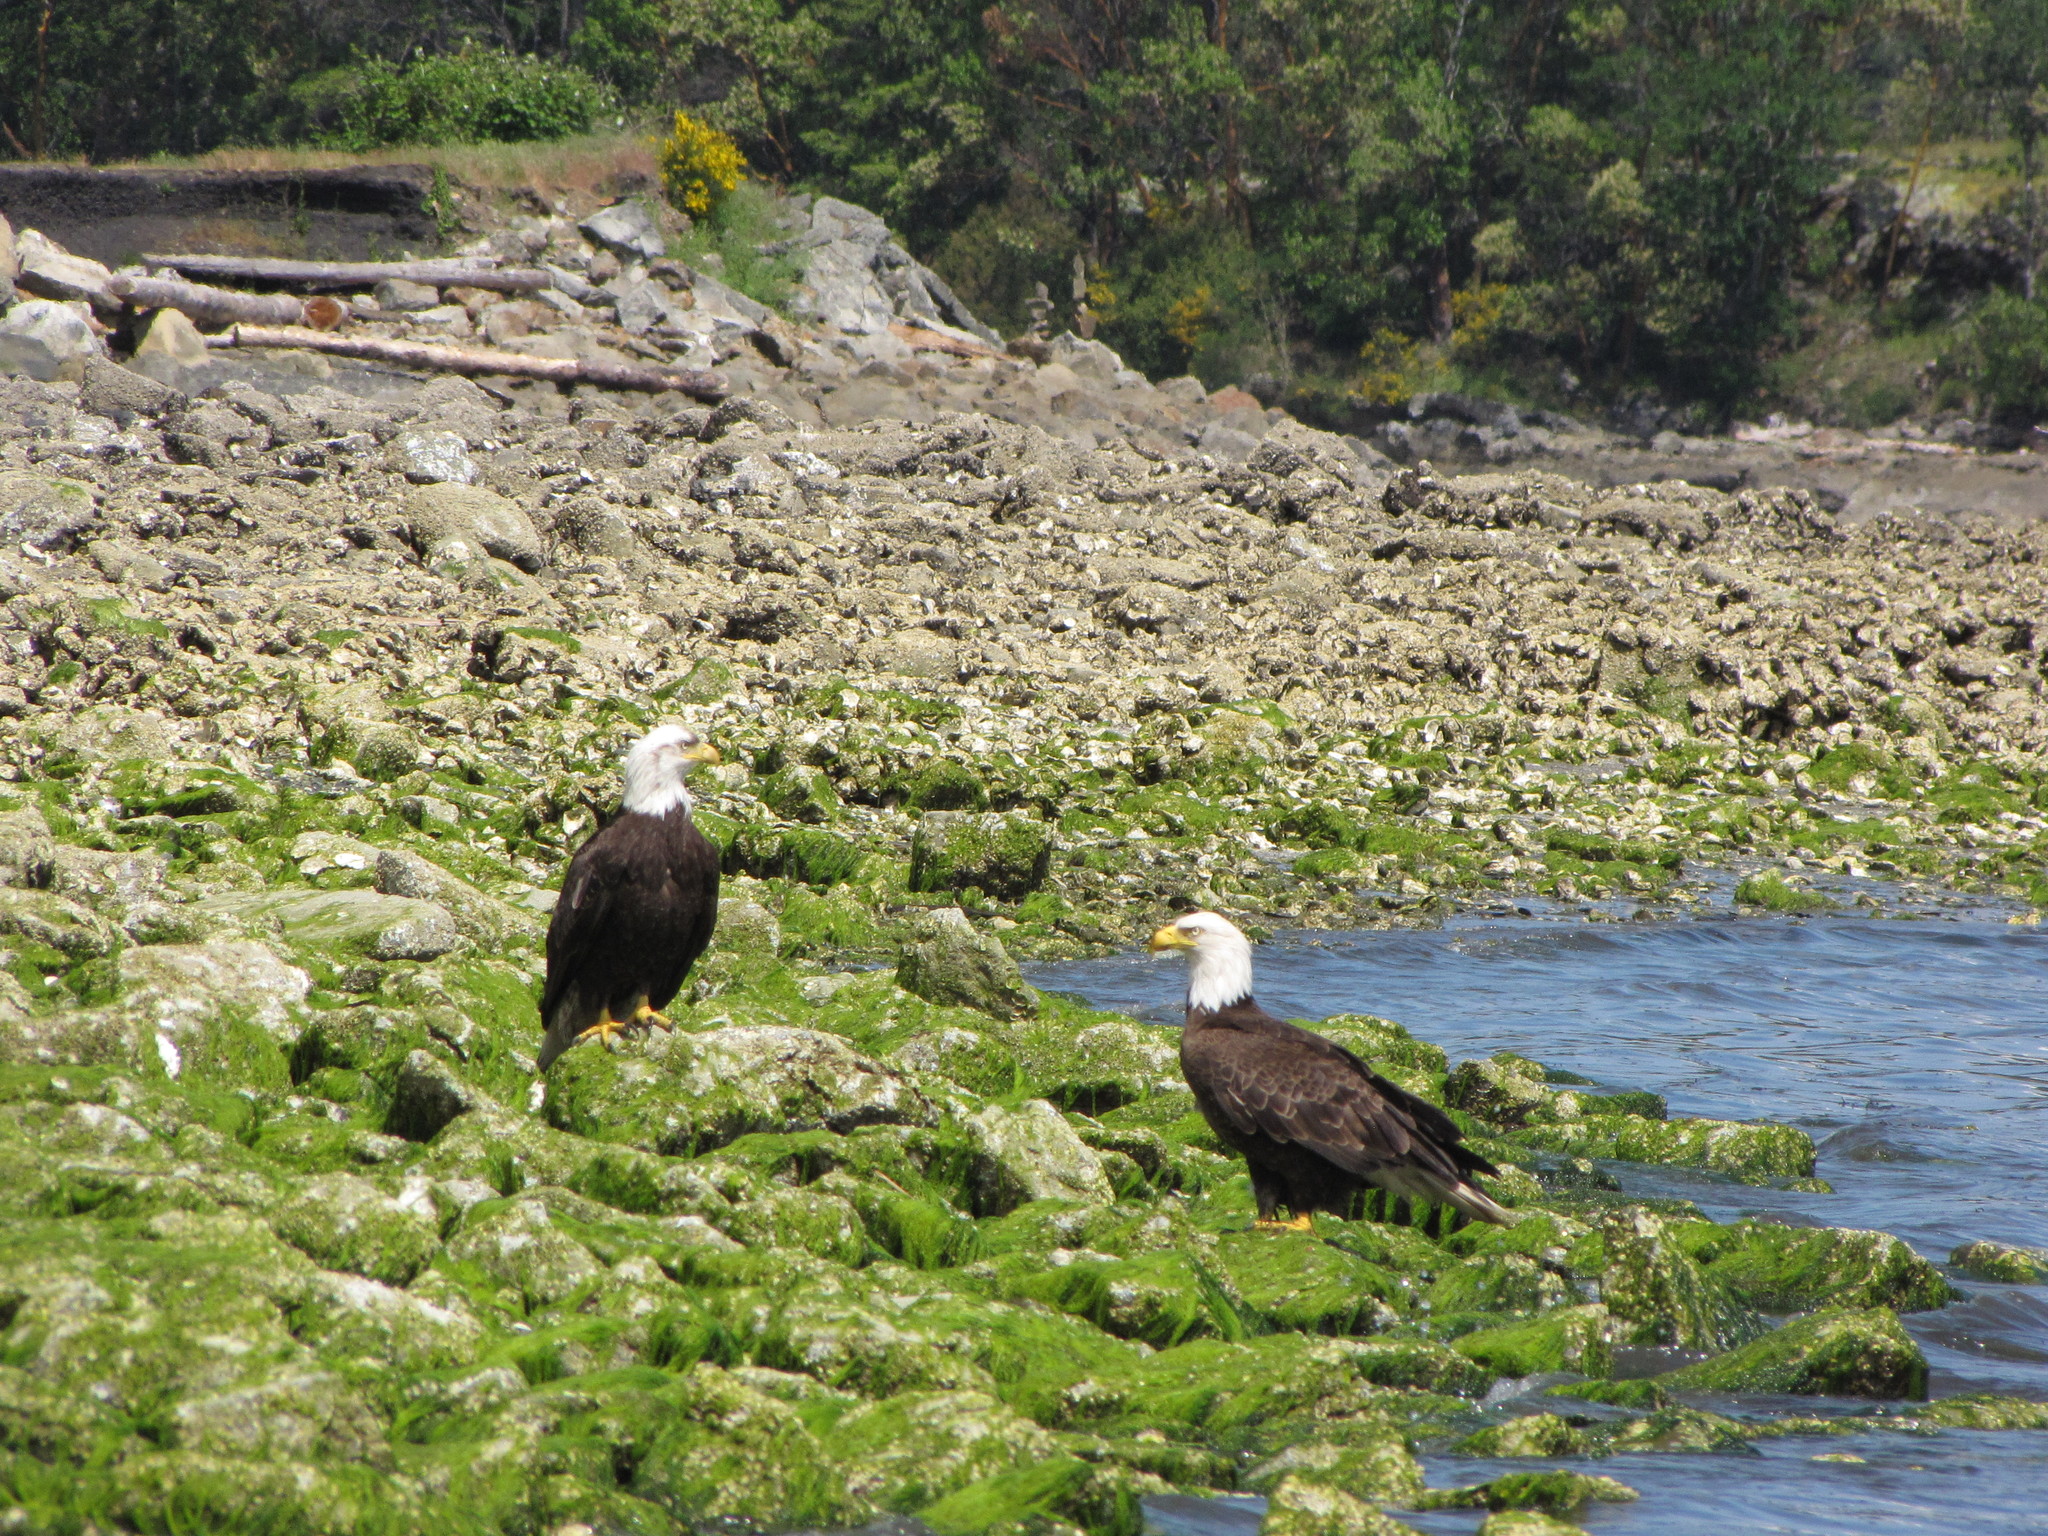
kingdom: Animalia
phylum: Chordata
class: Aves
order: Accipitriformes
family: Accipitridae
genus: Haliaeetus
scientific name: Haliaeetus leucocephalus
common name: Bald eagle
